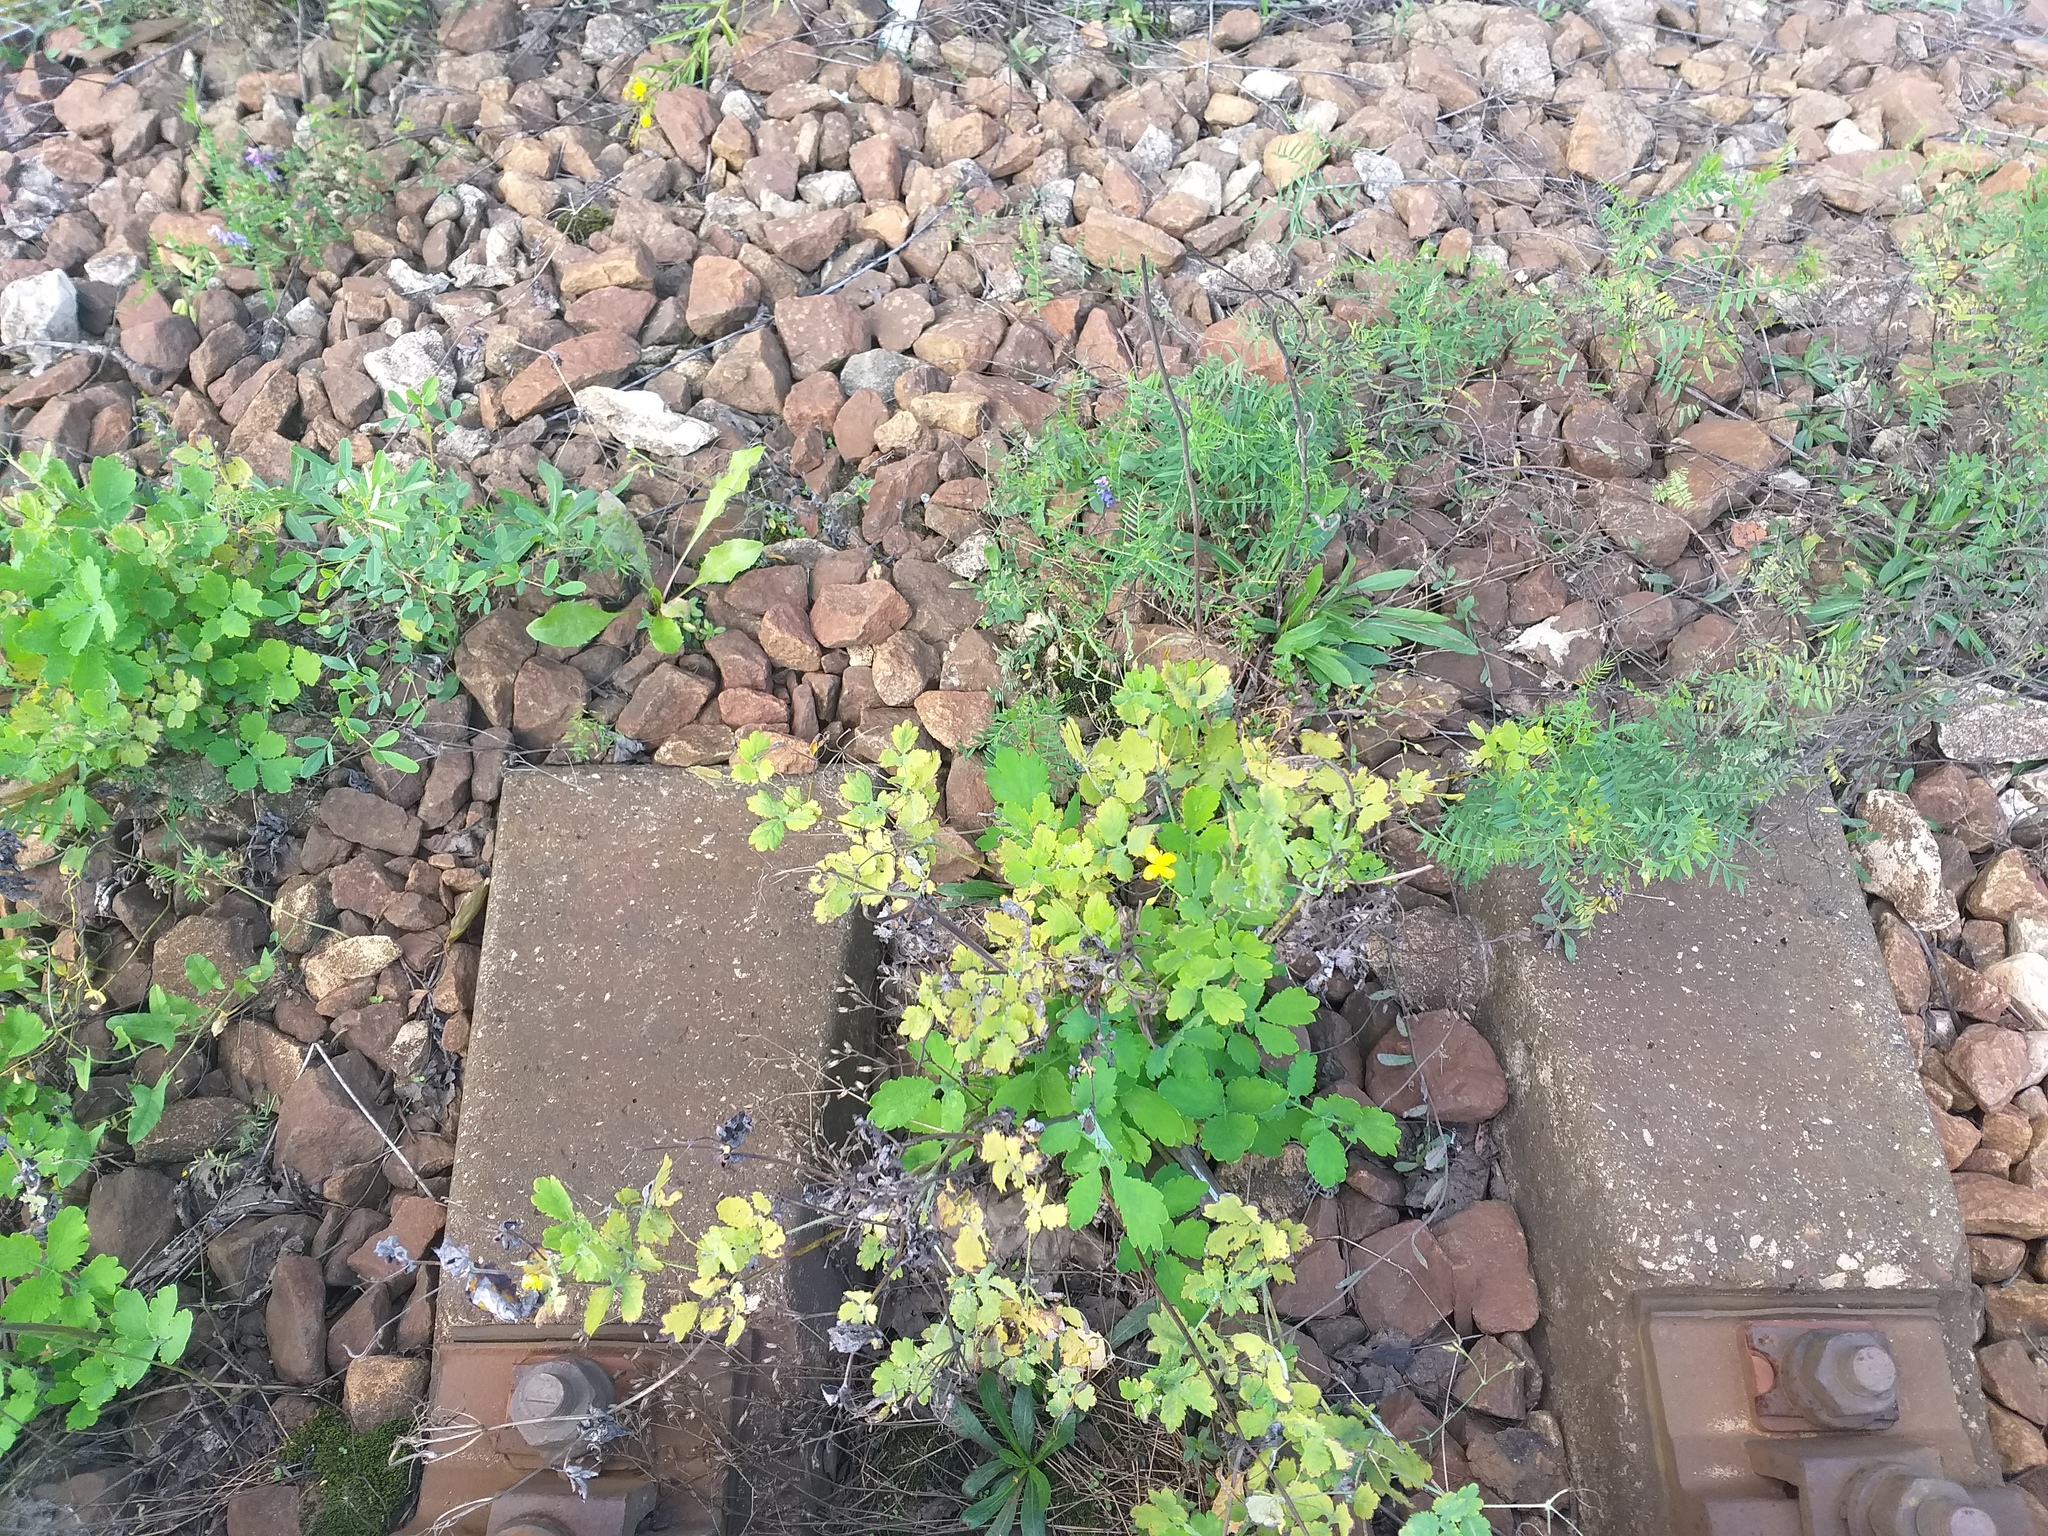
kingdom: Plantae
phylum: Tracheophyta
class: Magnoliopsida
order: Ranunculales
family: Papaveraceae
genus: Chelidonium
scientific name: Chelidonium majus
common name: Greater celandine
